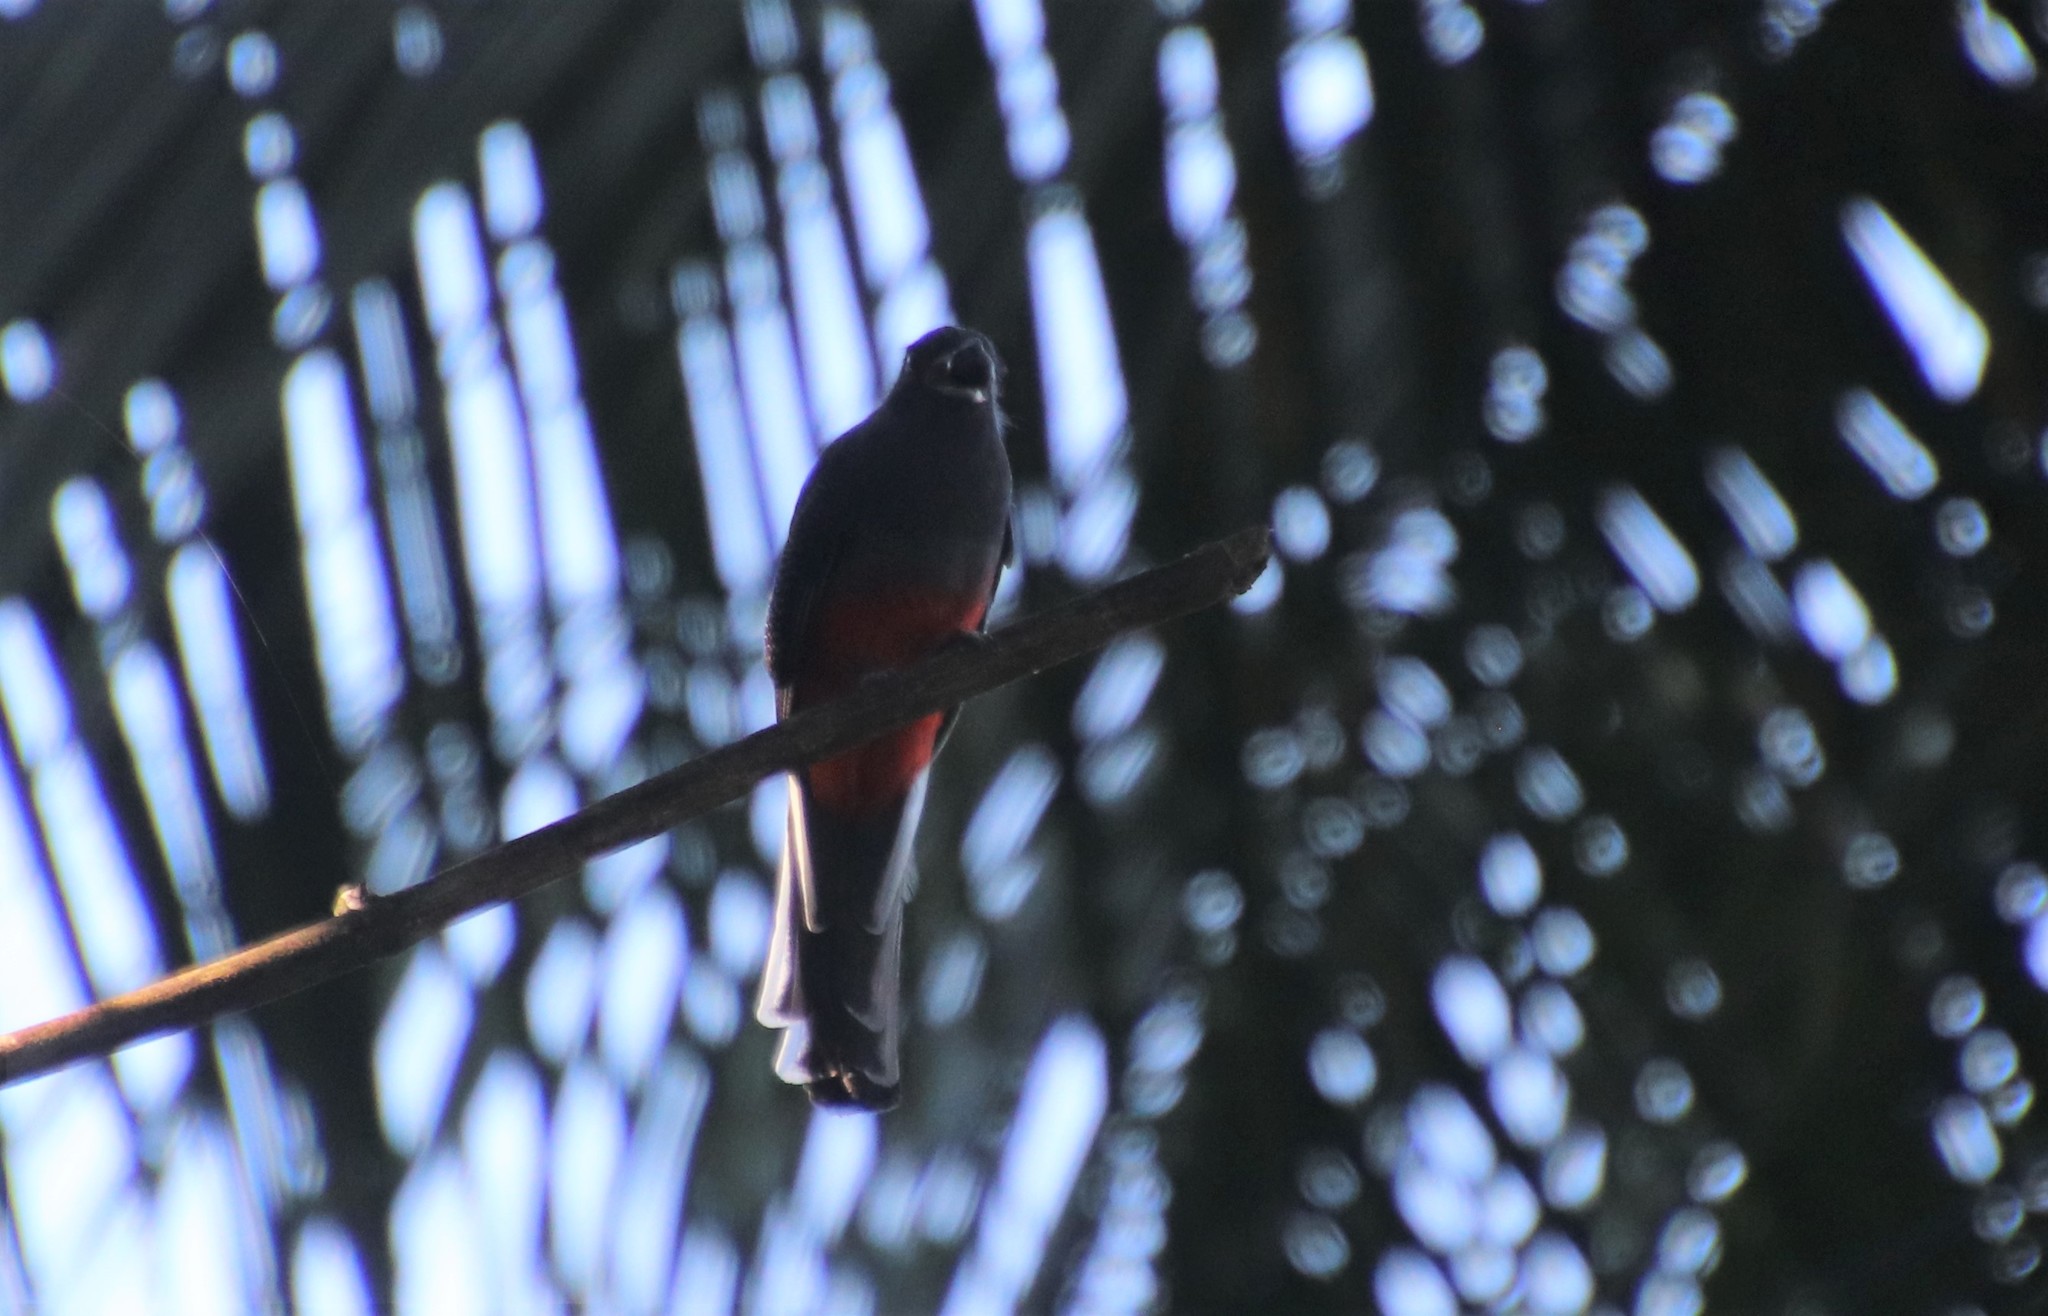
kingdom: Animalia
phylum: Chordata
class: Aves
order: Trogoniformes
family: Trogonidae
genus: Trogon
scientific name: Trogon surrucura
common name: Surucua trogon
